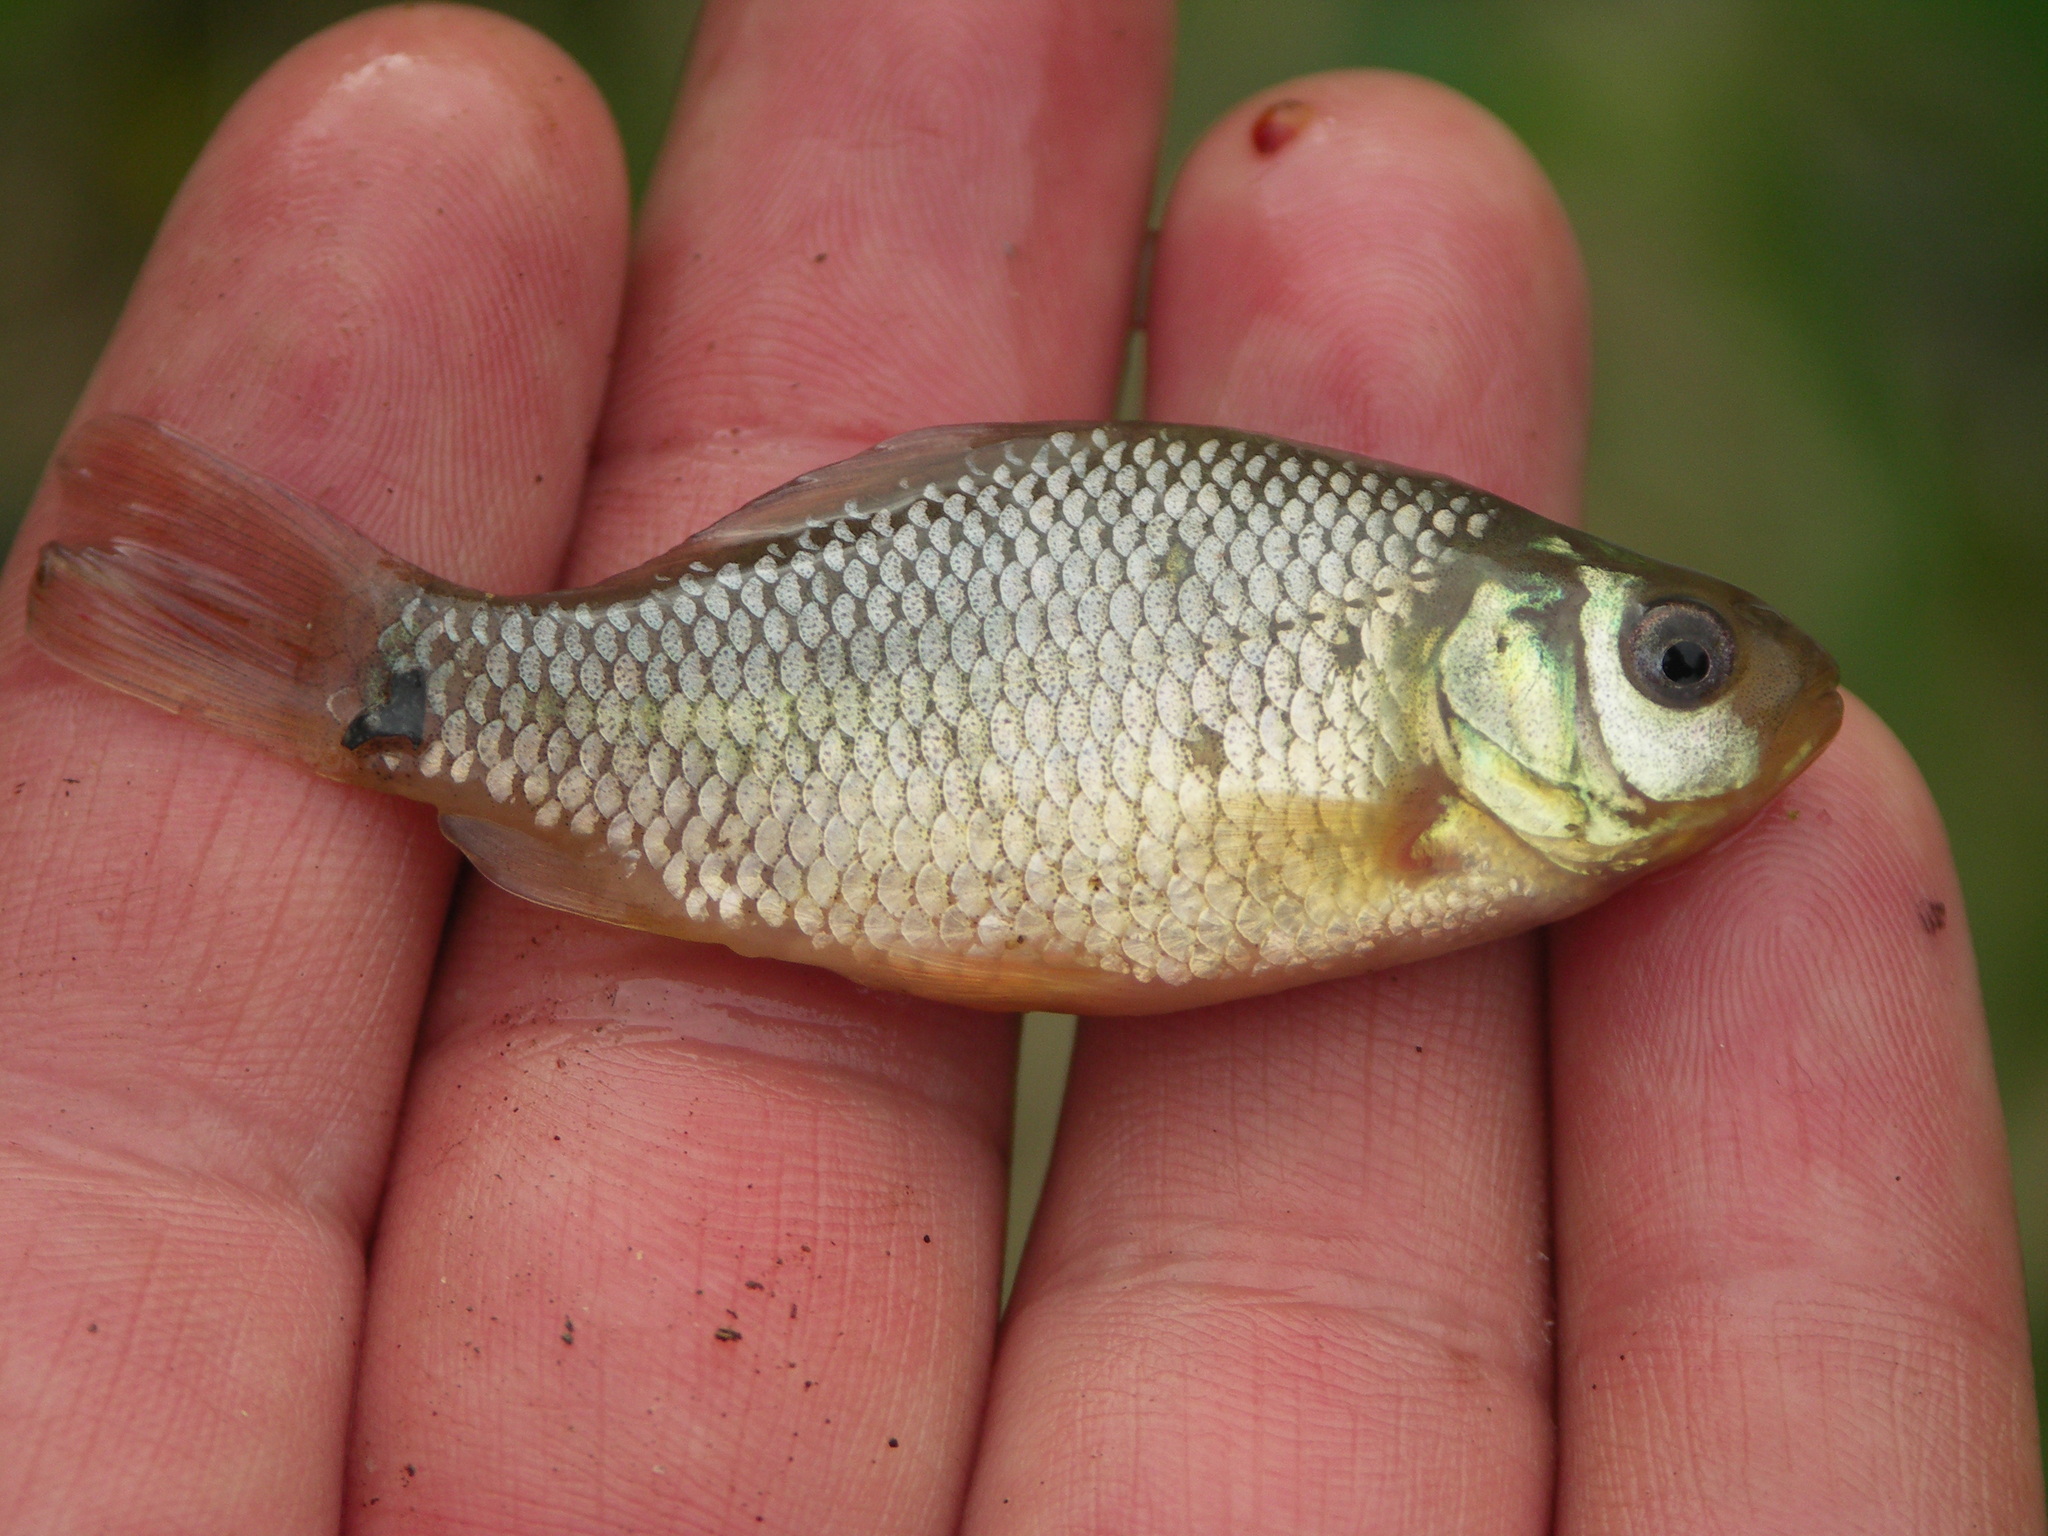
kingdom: Animalia
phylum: Chordata
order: Cypriniformes
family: Cyprinidae
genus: Carassius
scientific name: Carassius carassius
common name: Crucian carp
